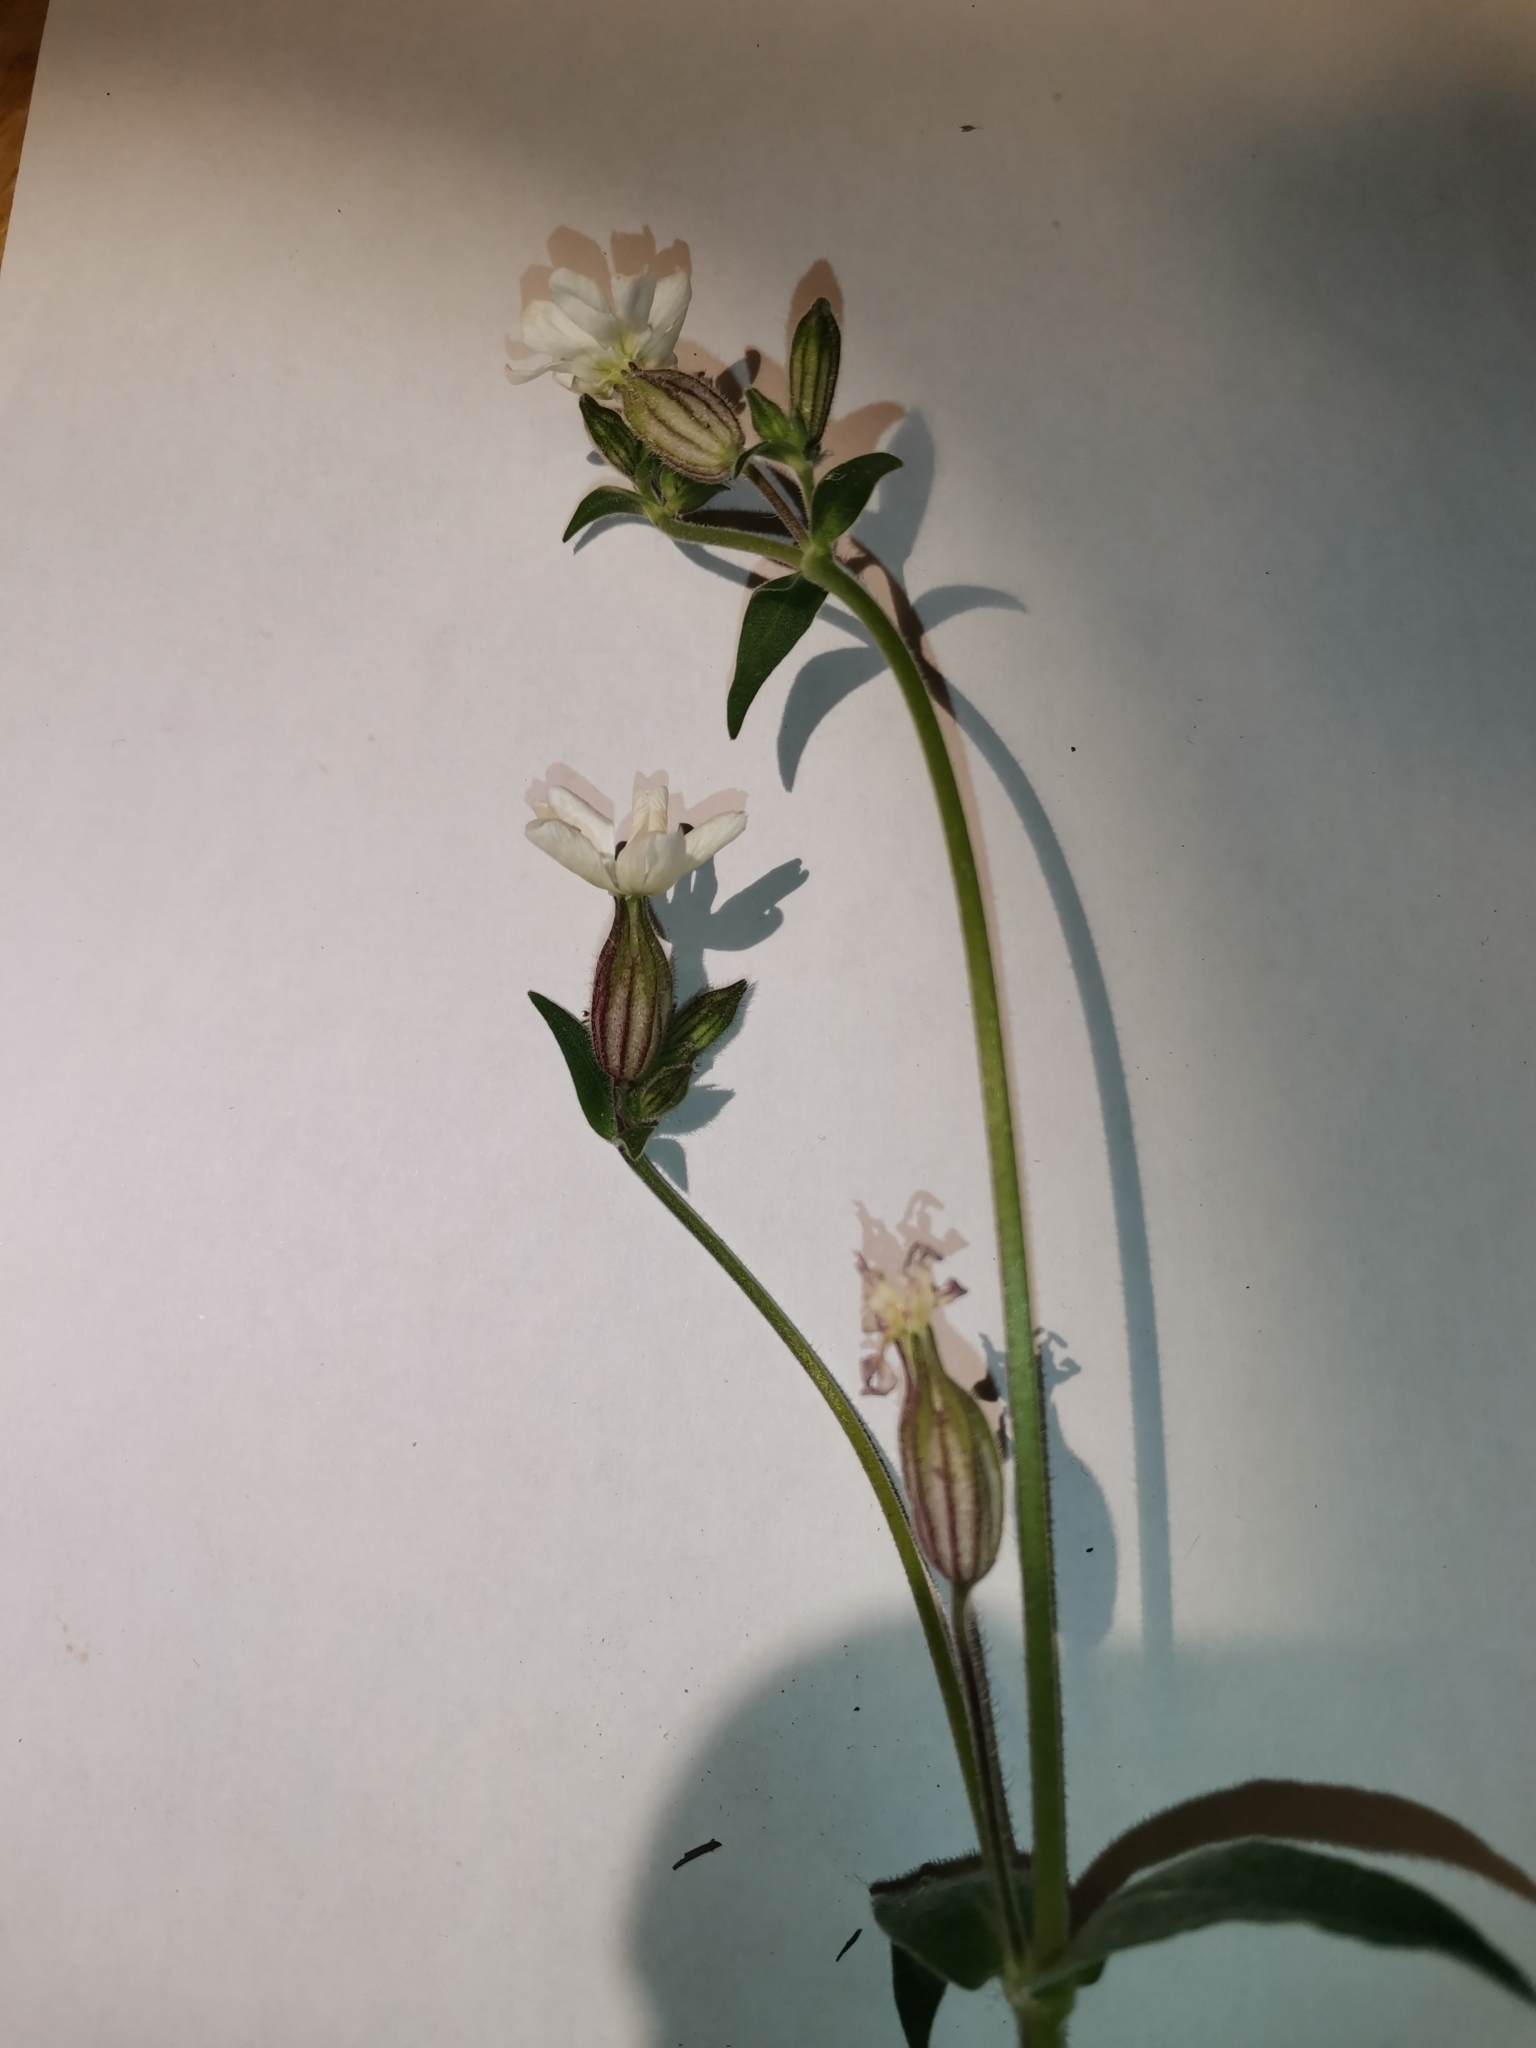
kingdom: Plantae
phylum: Tracheophyta
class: Magnoliopsida
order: Caryophyllales
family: Caryophyllaceae
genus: Silene
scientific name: Silene latifolia
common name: White campion
